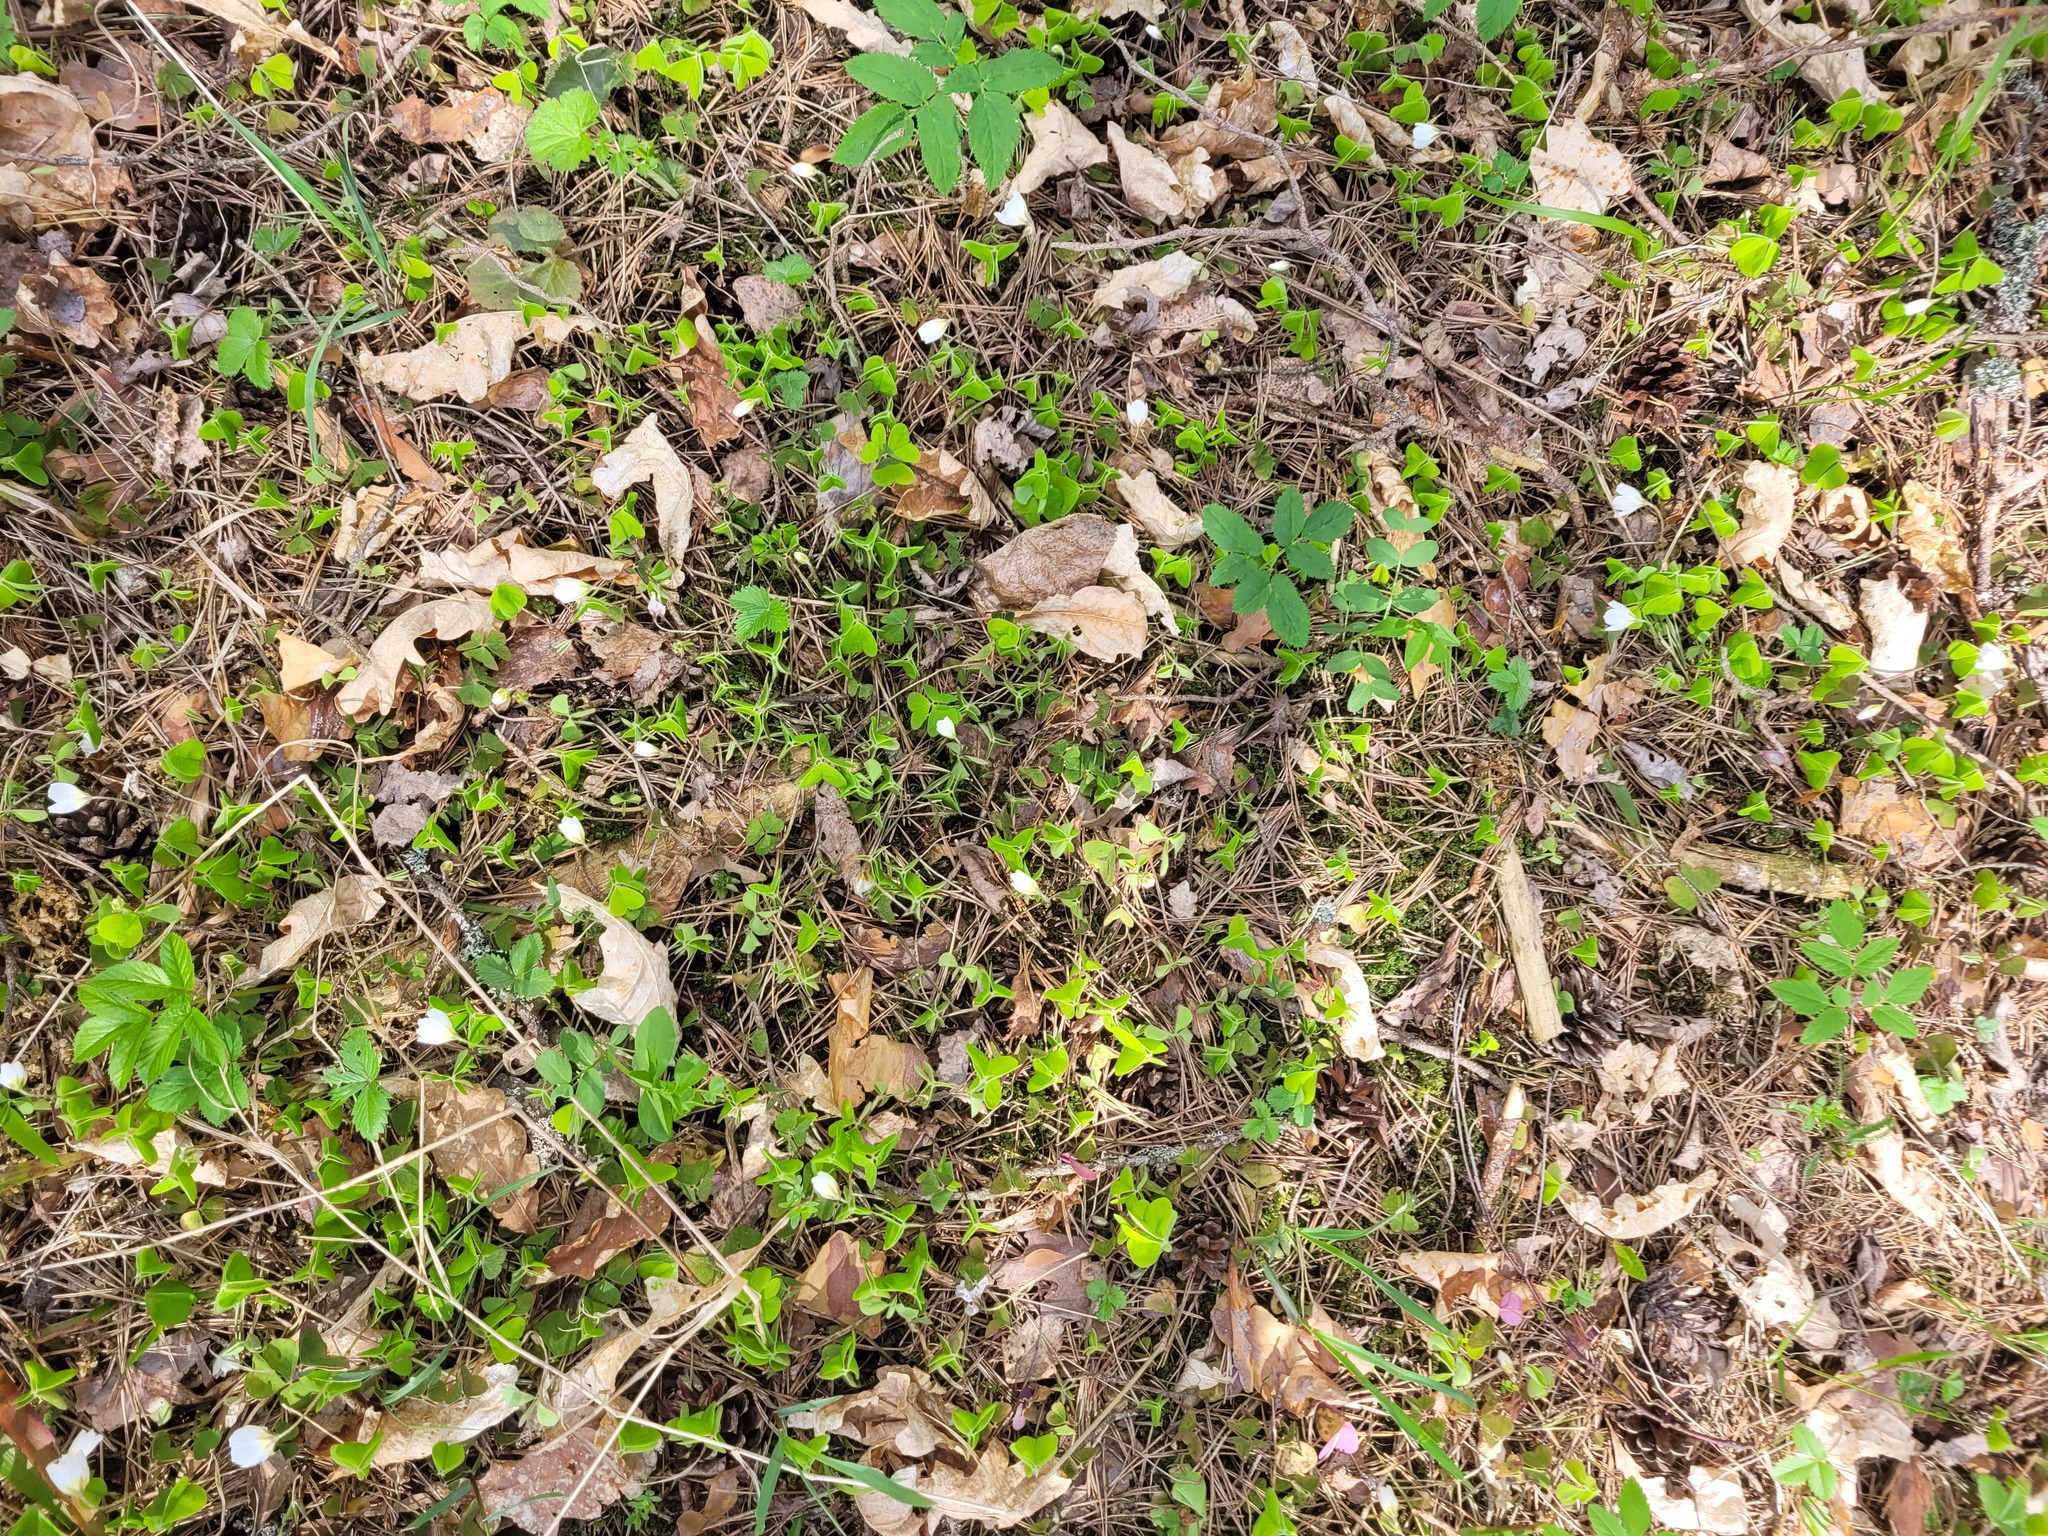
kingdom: Plantae
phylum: Tracheophyta
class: Magnoliopsida
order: Oxalidales
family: Oxalidaceae
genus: Oxalis
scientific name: Oxalis acetosella
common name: Wood-sorrel
